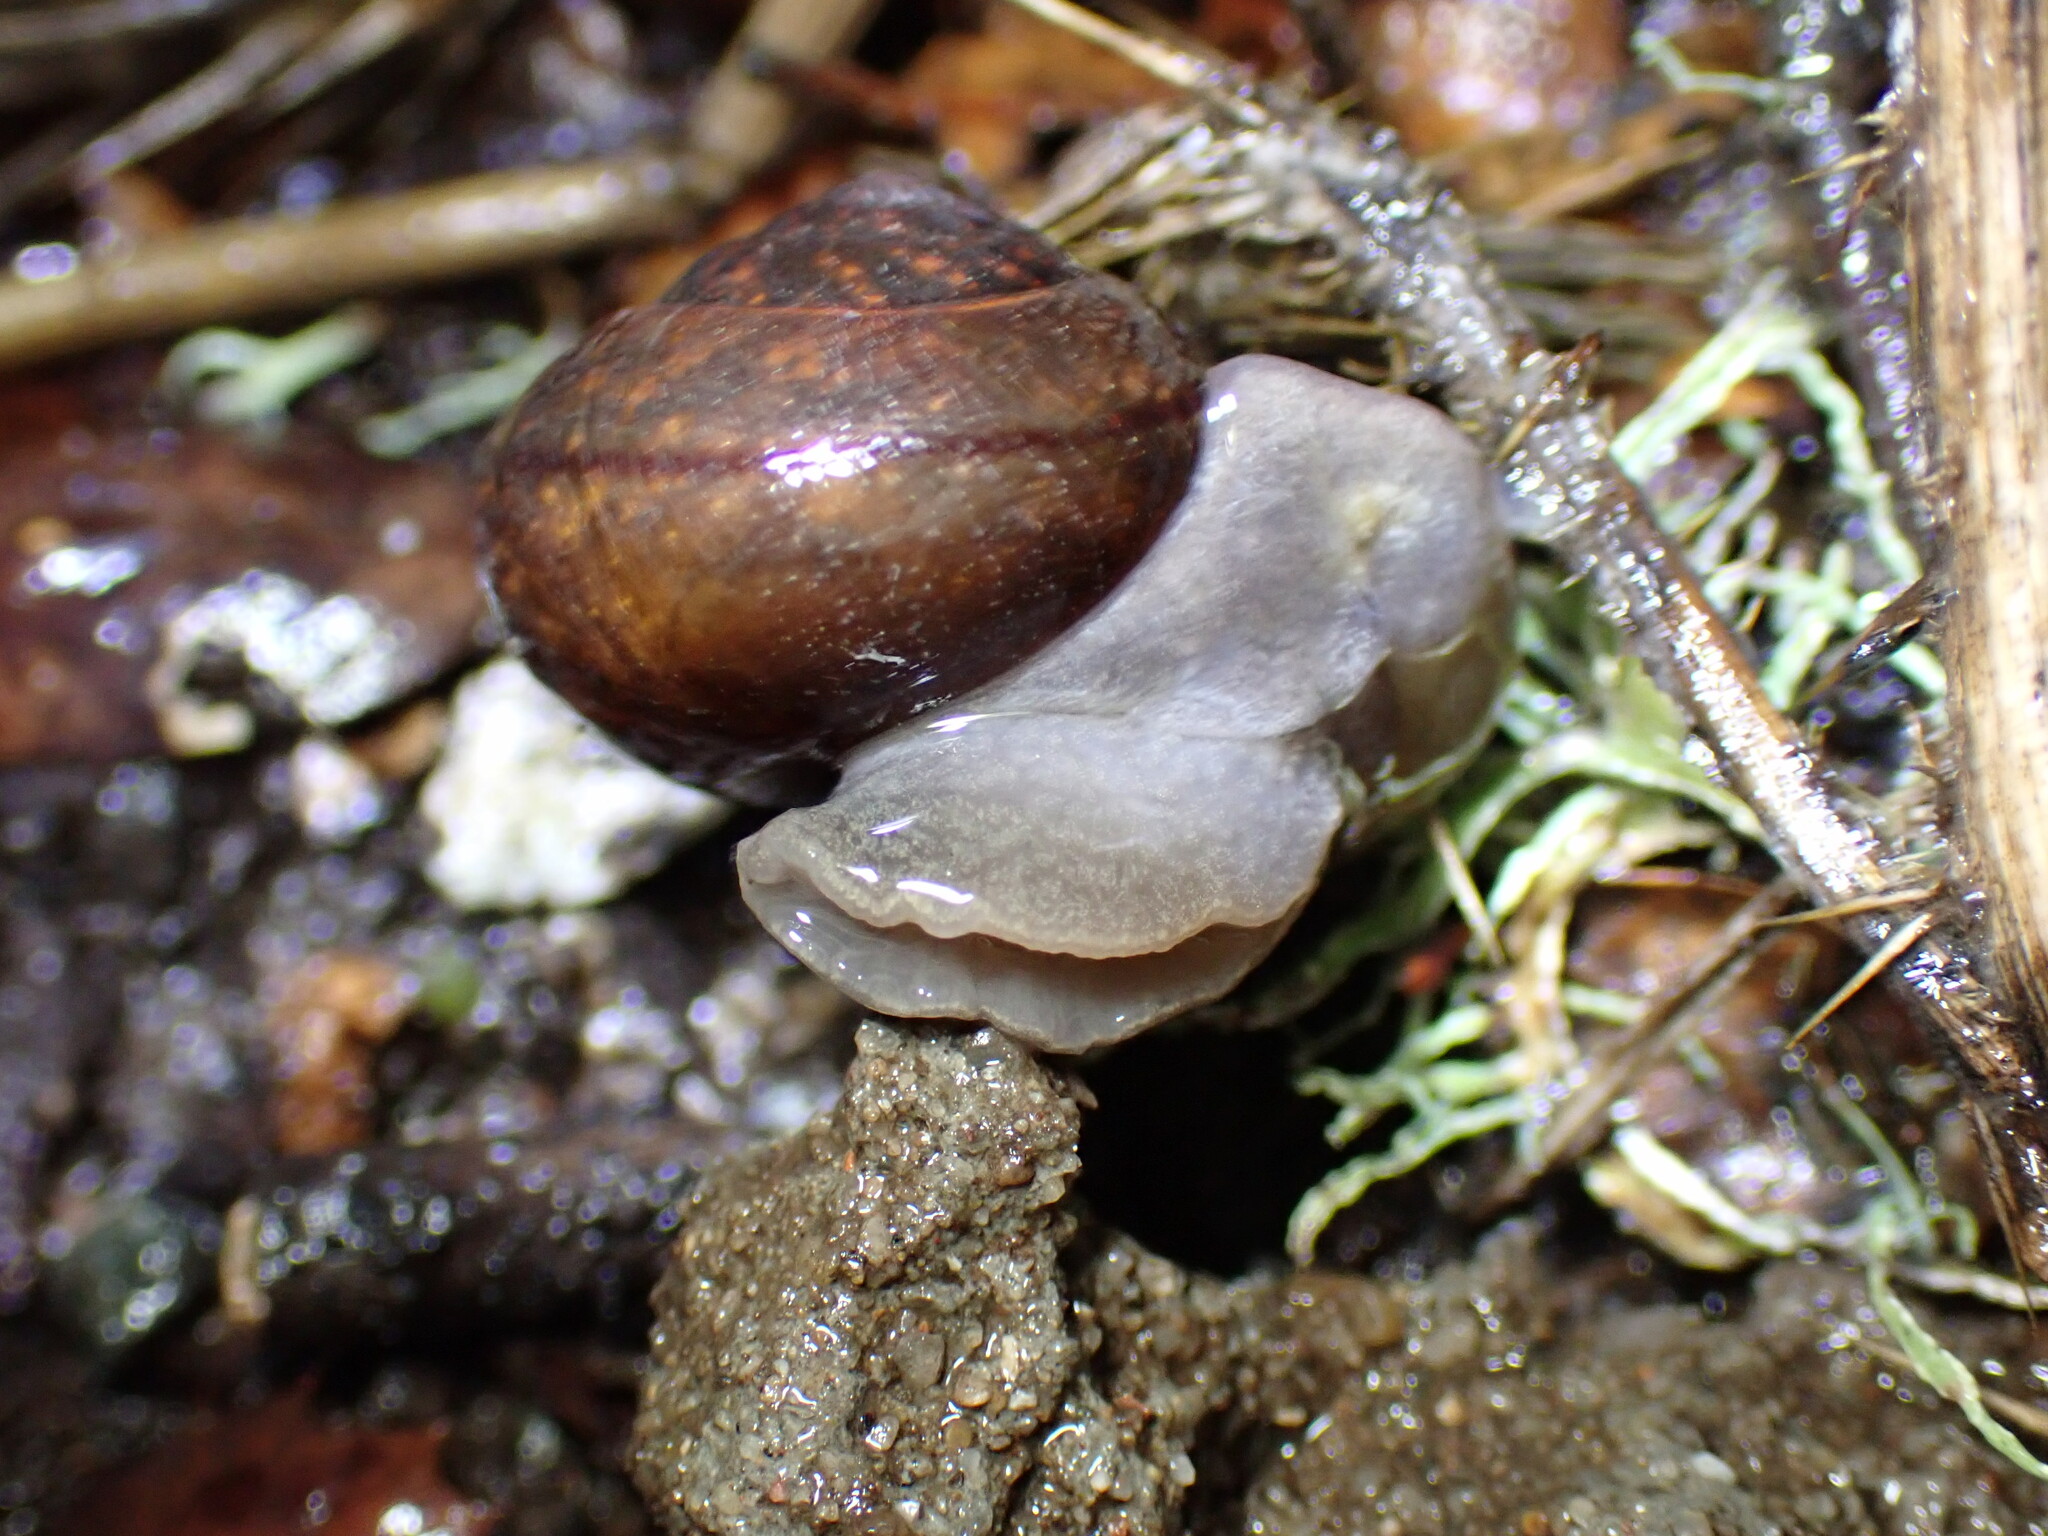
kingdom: Animalia
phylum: Mollusca
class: Gastropoda
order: Stylommatophora
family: Xanthonychidae
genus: Helminthoglypta
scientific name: Helminthoglypta nickliniana
